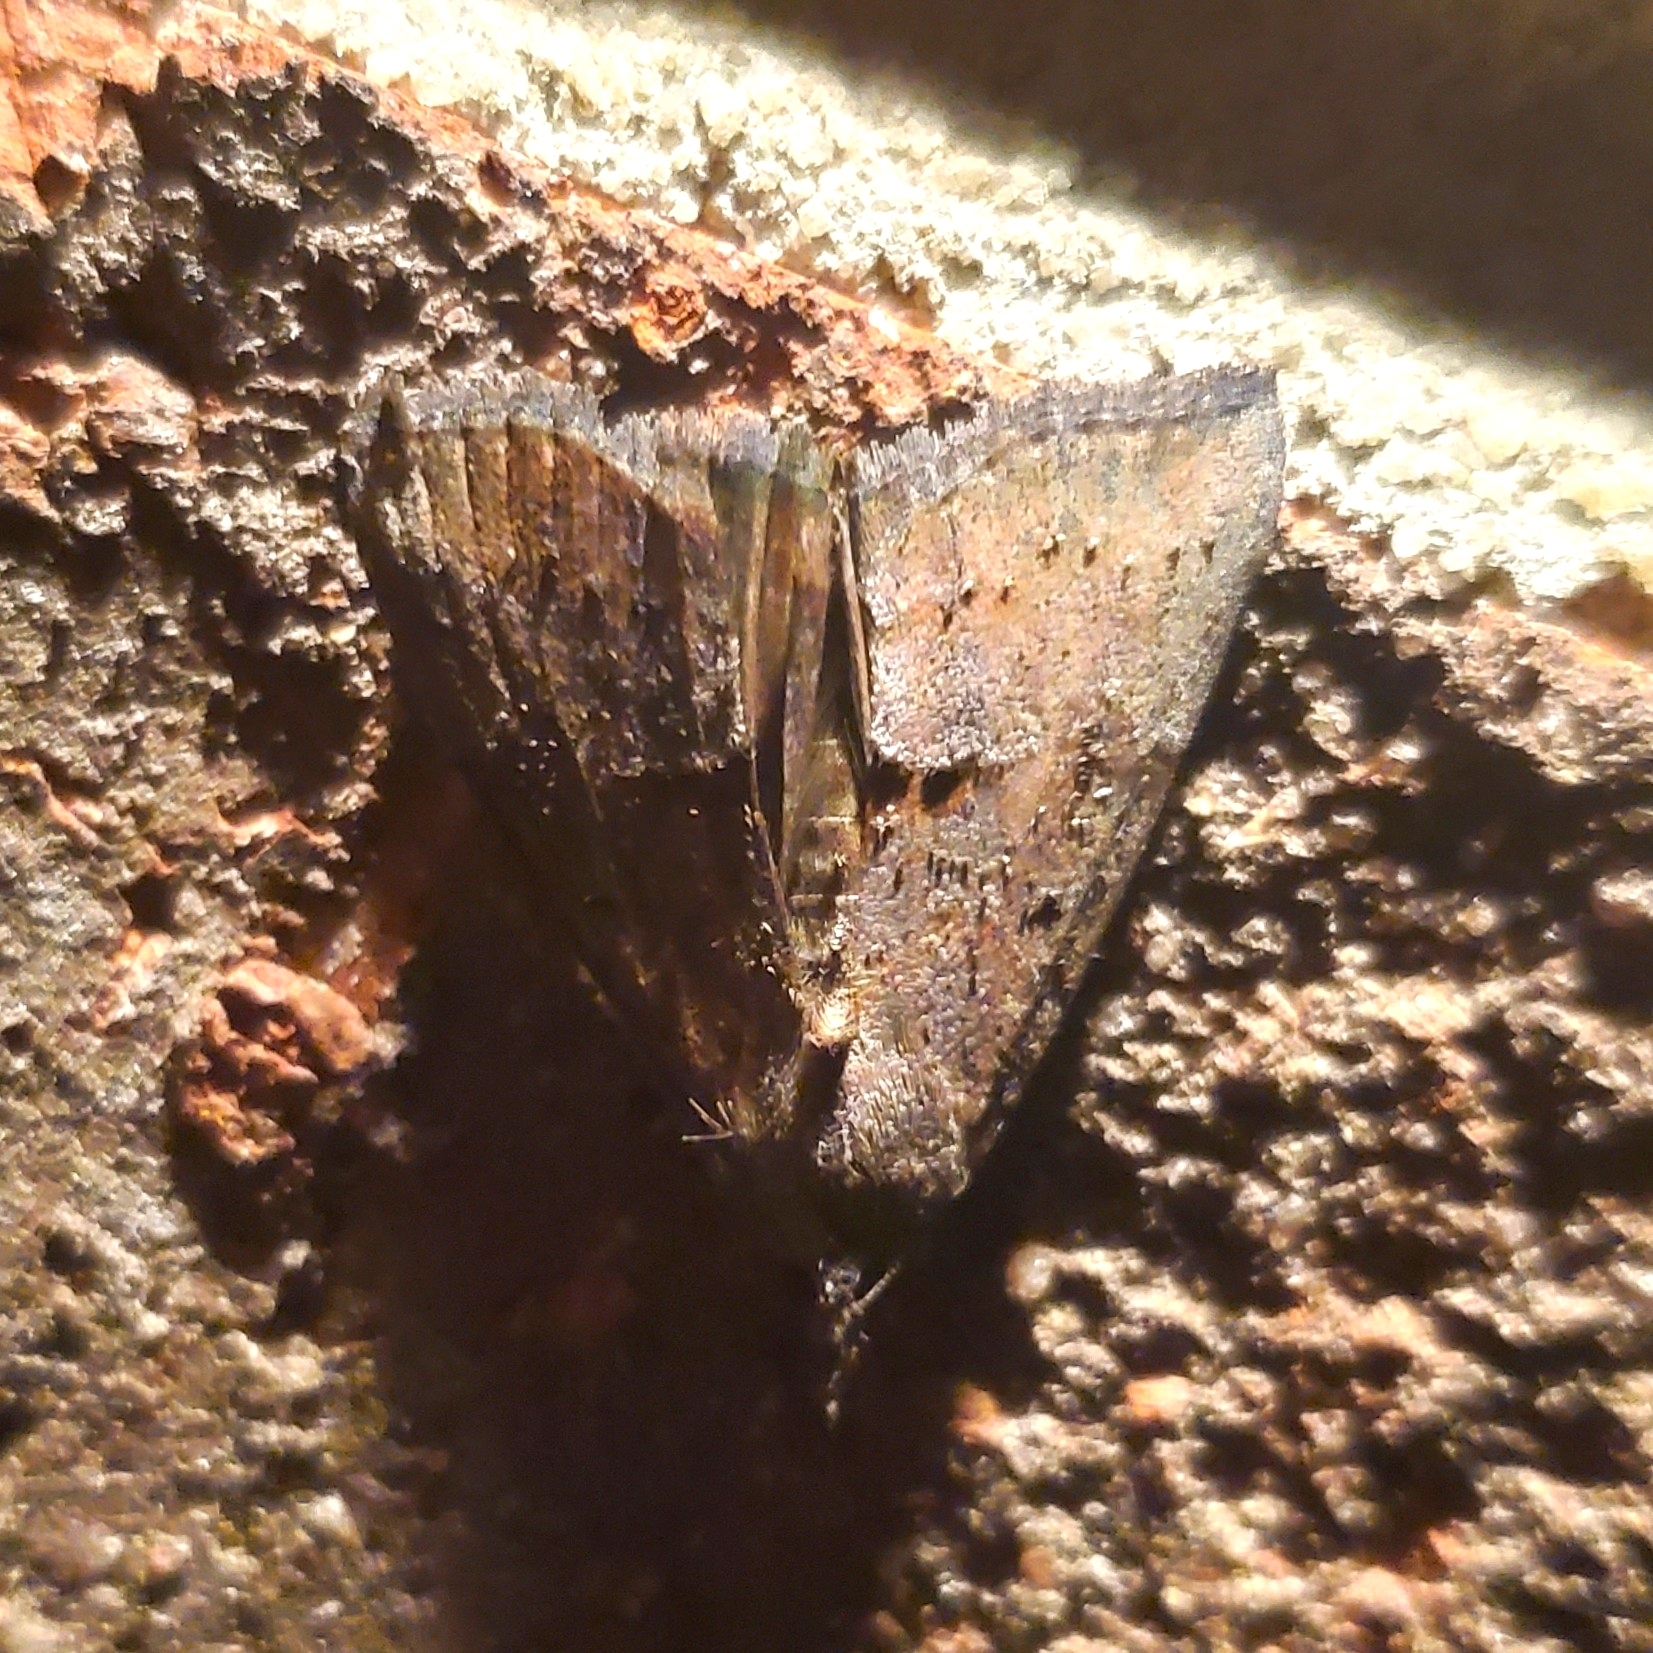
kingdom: Animalia
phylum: Arthropoda
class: Insecta
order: Lepidoptera
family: Erebidae
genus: Hypena
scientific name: Hypena scabra
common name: Green cloverworm
